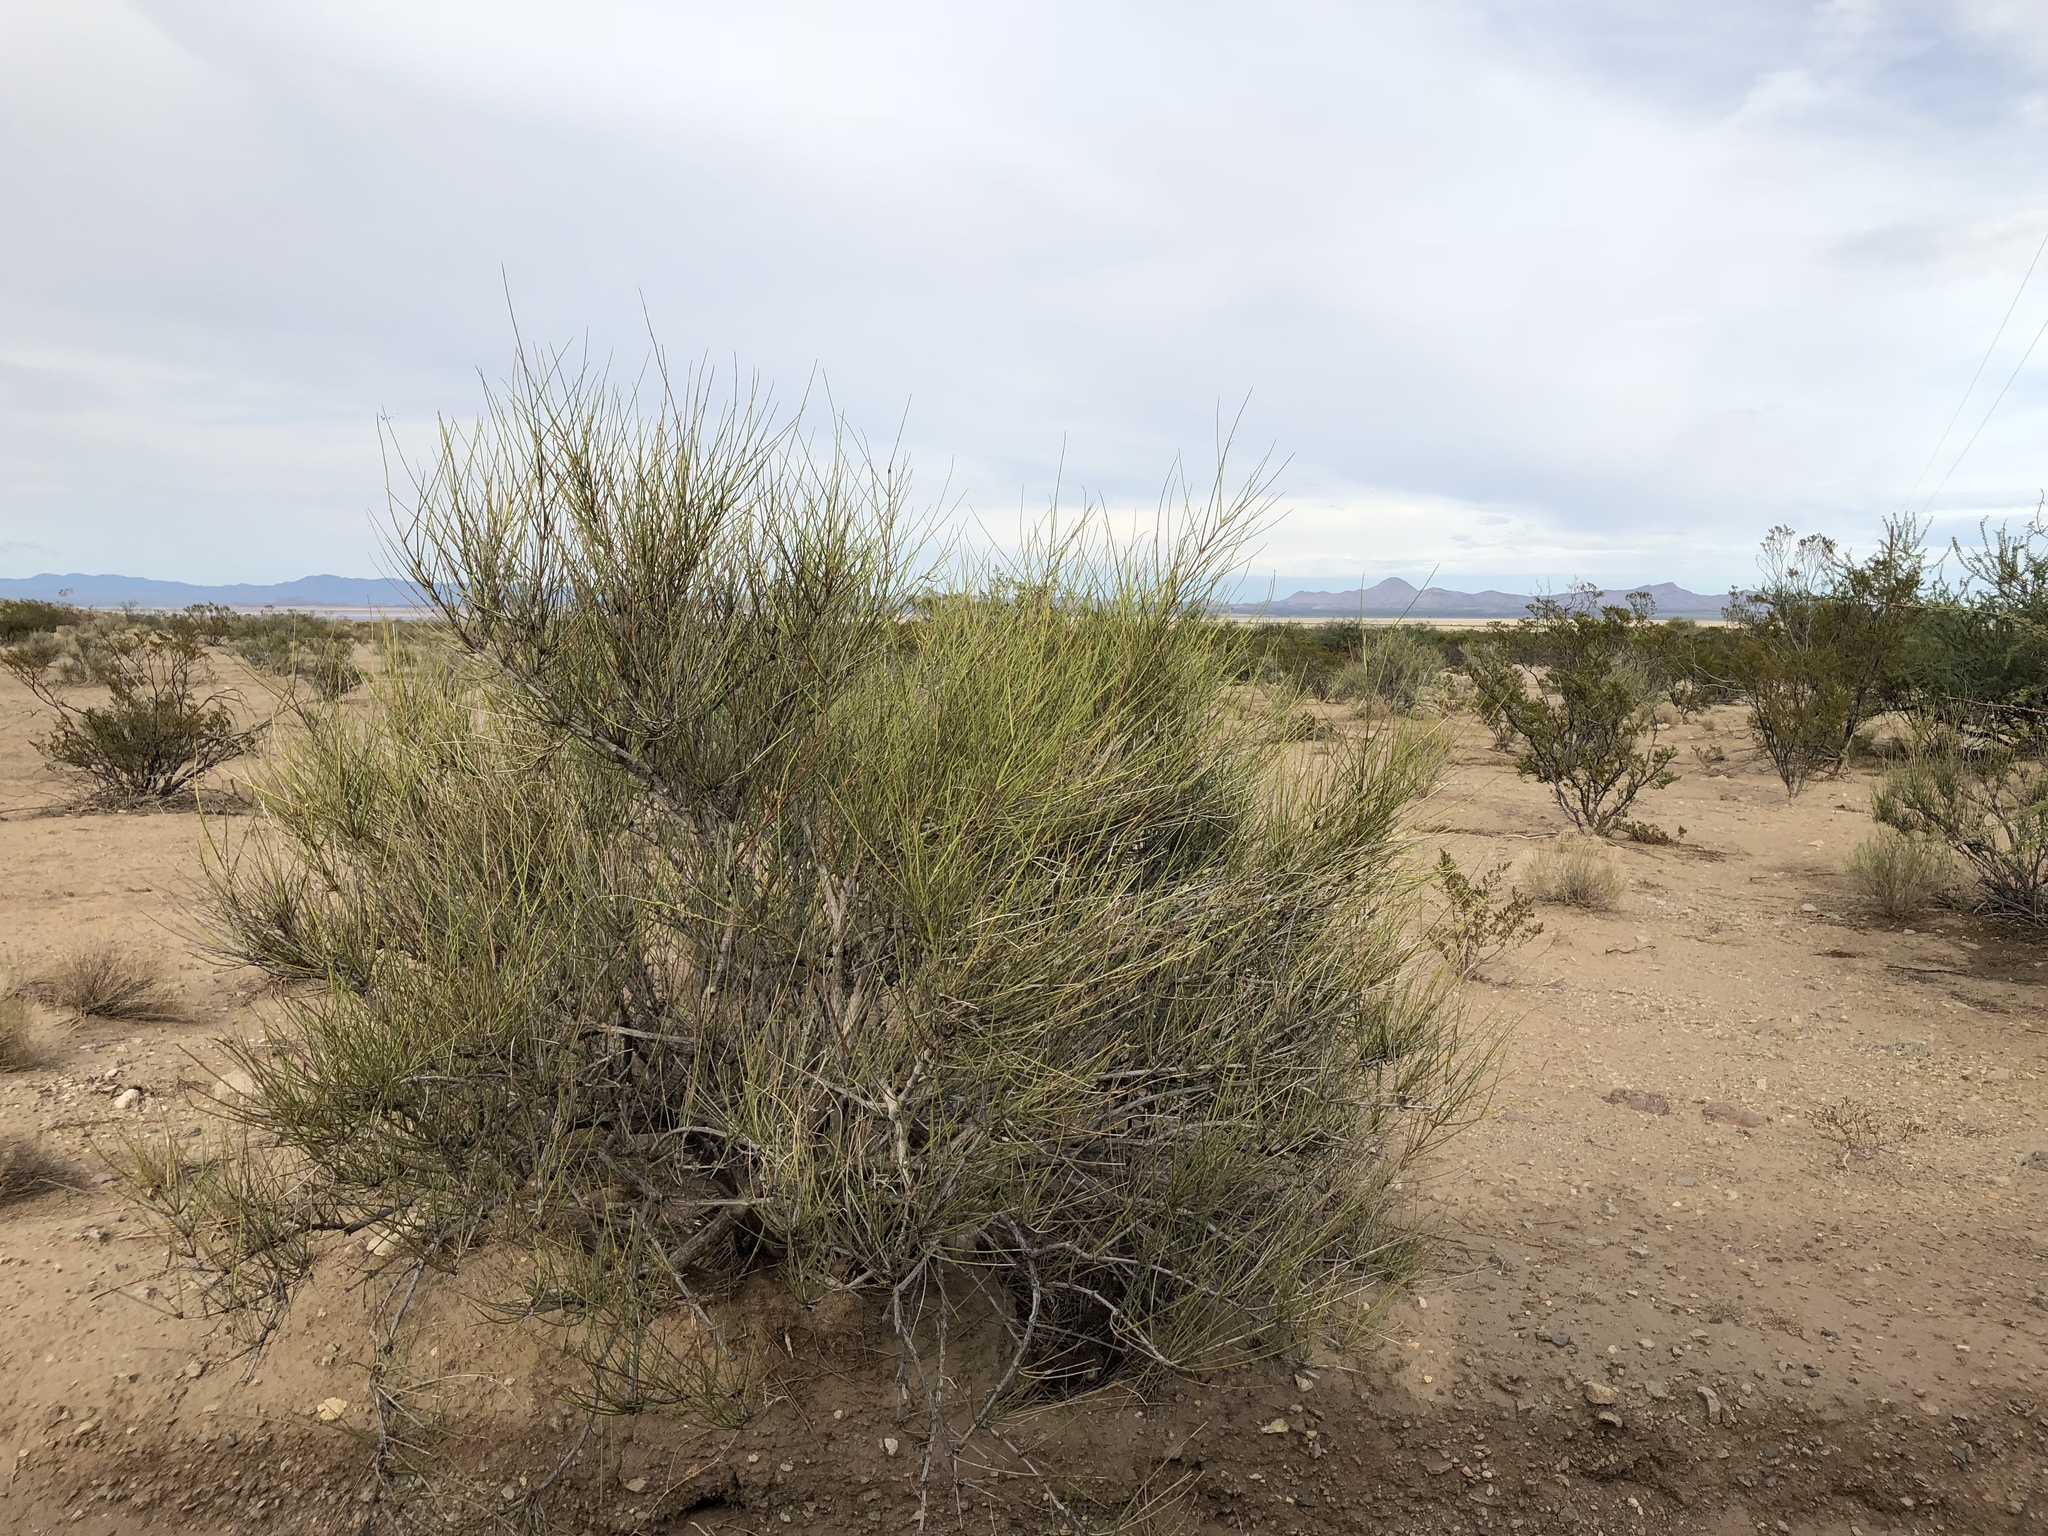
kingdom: Plantae
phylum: Tracheophyta
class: Gnetopsida
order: Ephedrales
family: Ephedraceae
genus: Ephedra
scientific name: Ephedra trifurca
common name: Mexican-tea
